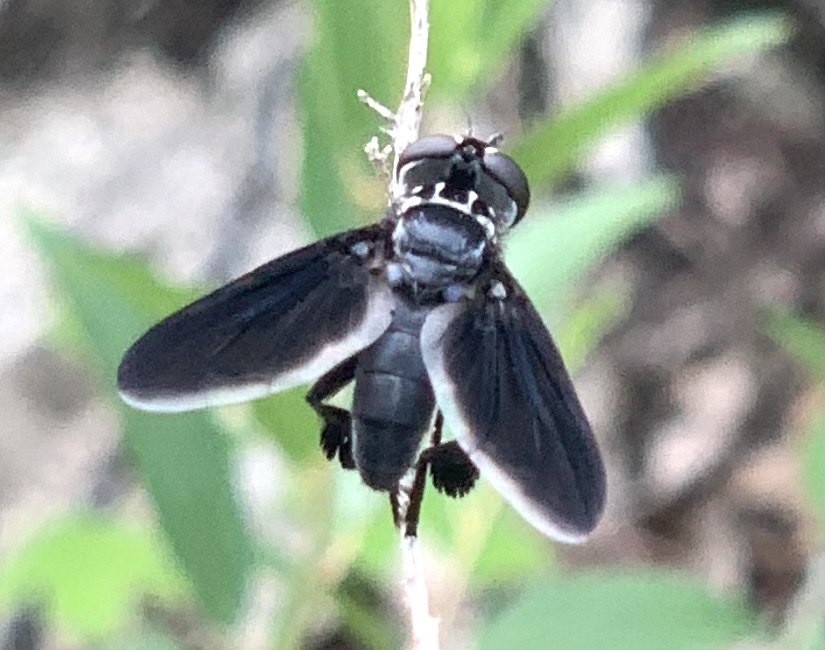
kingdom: Animalia
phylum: Arthropoda
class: Insecta
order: Diptera
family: Tachinidae
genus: Trichopoda
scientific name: Trichopoda lanipes
